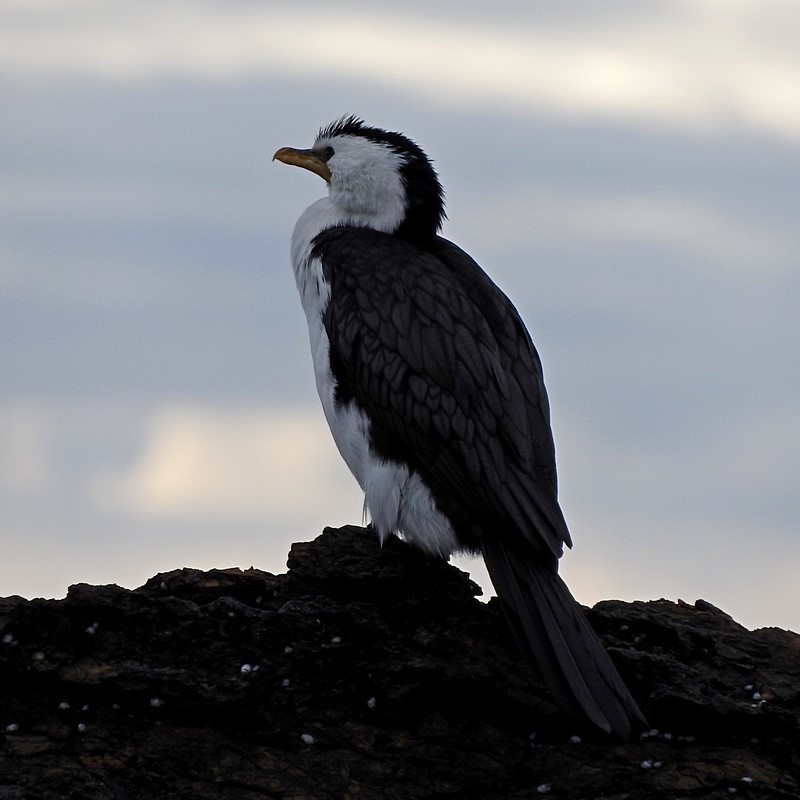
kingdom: Animalia
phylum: Chordata
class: Aves
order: Suliformes
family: Phalacrocoracidae
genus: Microcarbo
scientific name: Microcarbo melanoleucos
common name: Little pied cormorant
